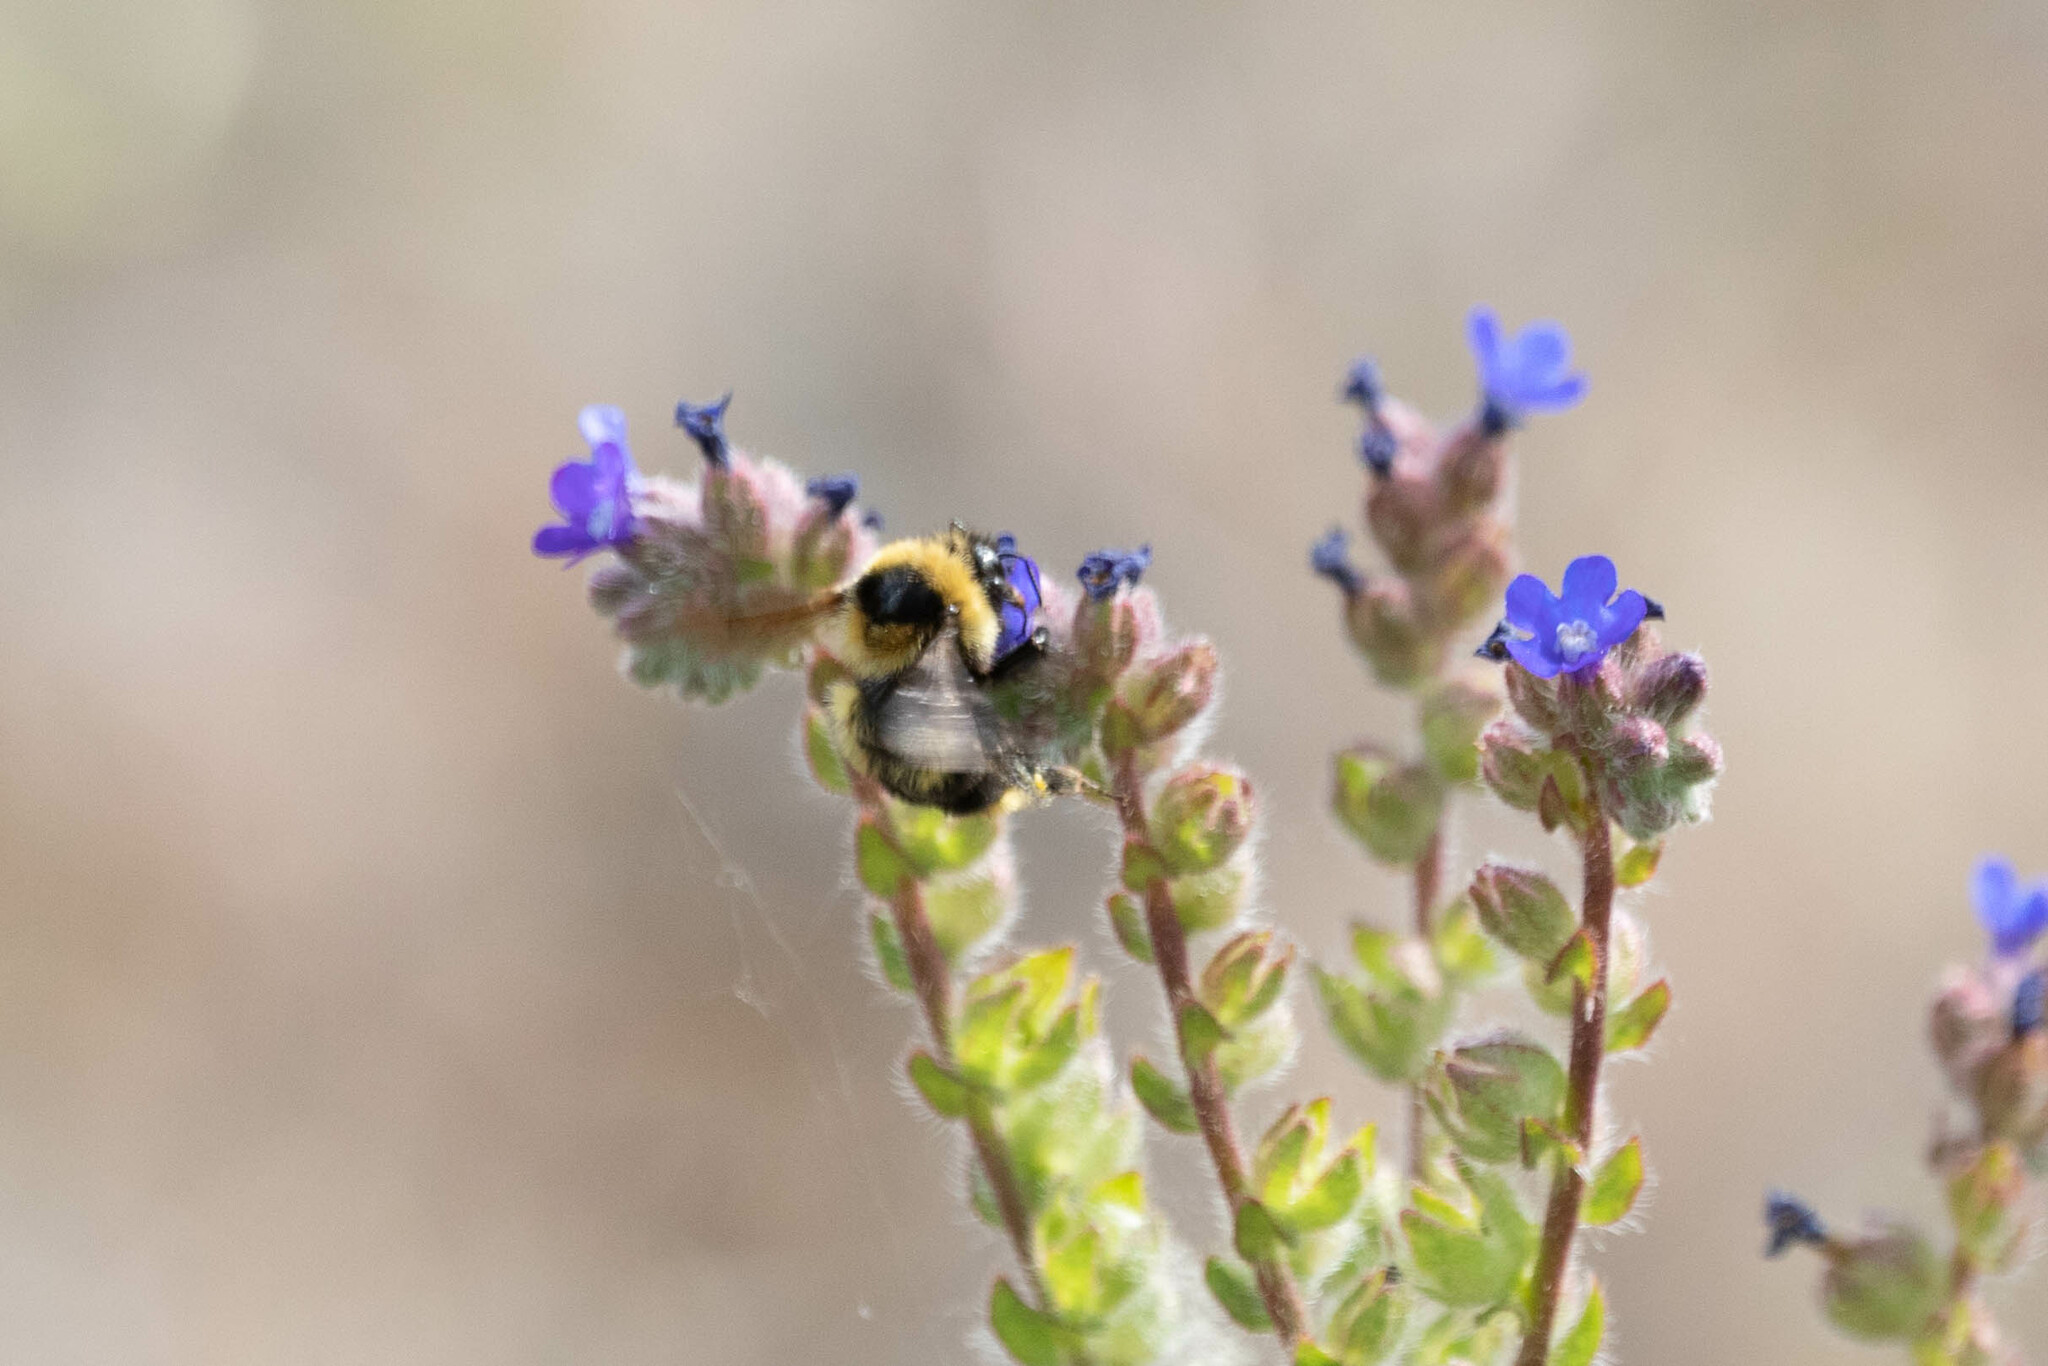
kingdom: Animalia
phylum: Arthropoda
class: Insecta
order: Hymenoptera
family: Apidae
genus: Bombus
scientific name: Bombus rufocinctus
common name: Red-belted bumble bee
